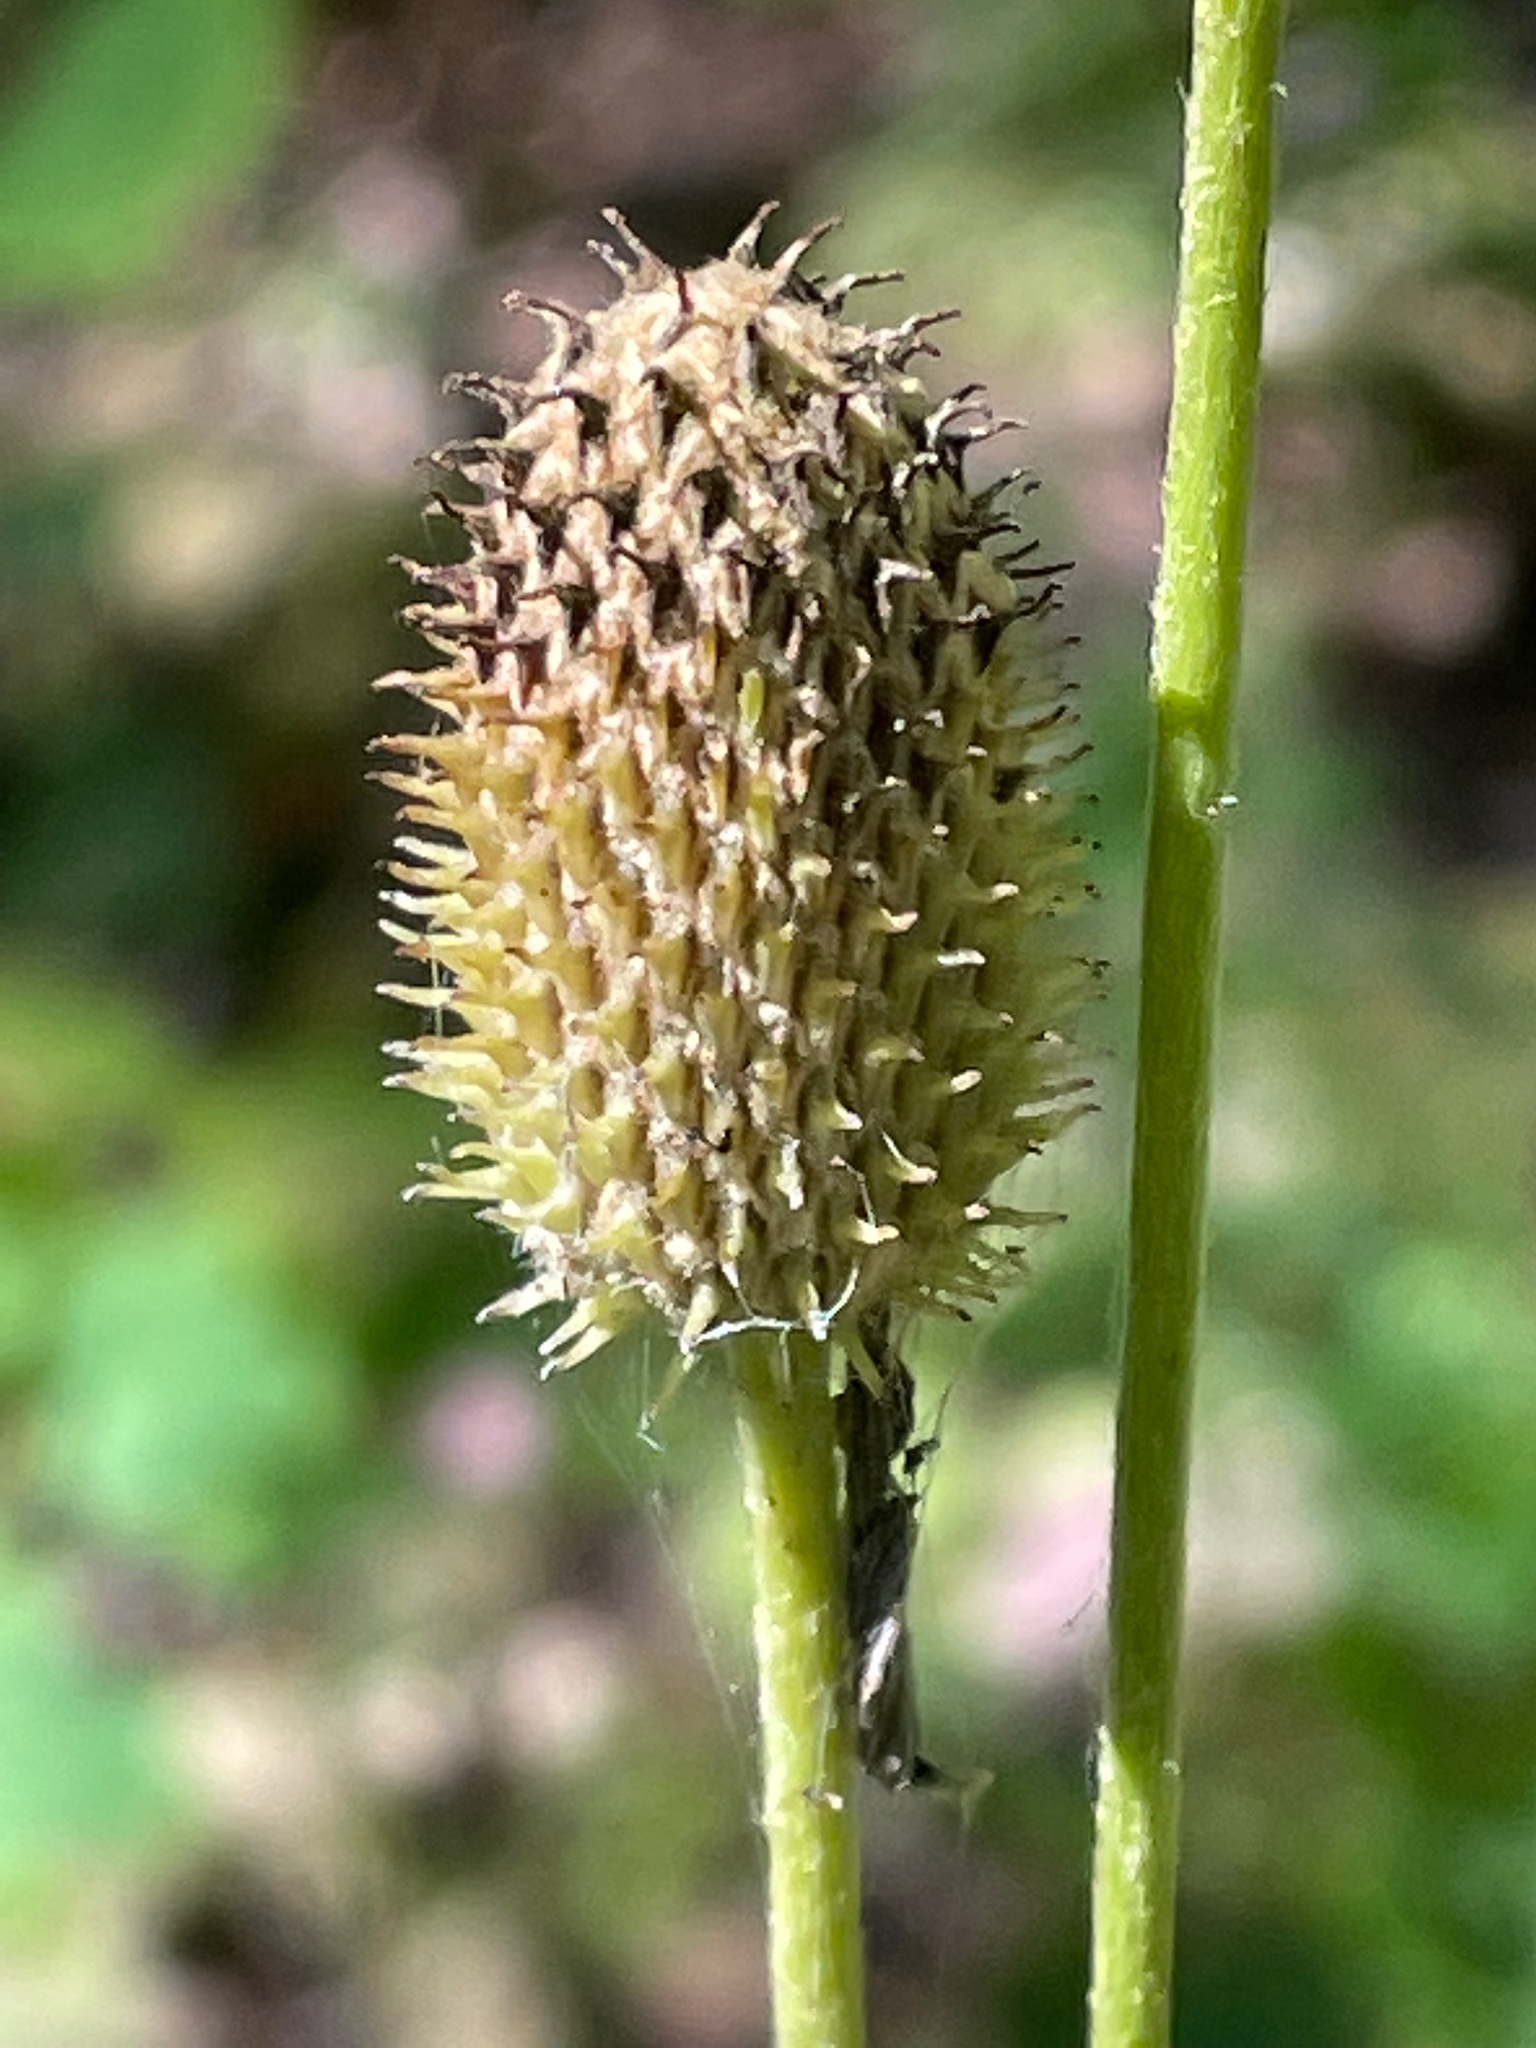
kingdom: Plantae
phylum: Tracheophyta
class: Magnoliopsida
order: Ranunculales
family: Ranunculaceae
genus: Anemone
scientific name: Anemone virginiana
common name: Tall anemone
